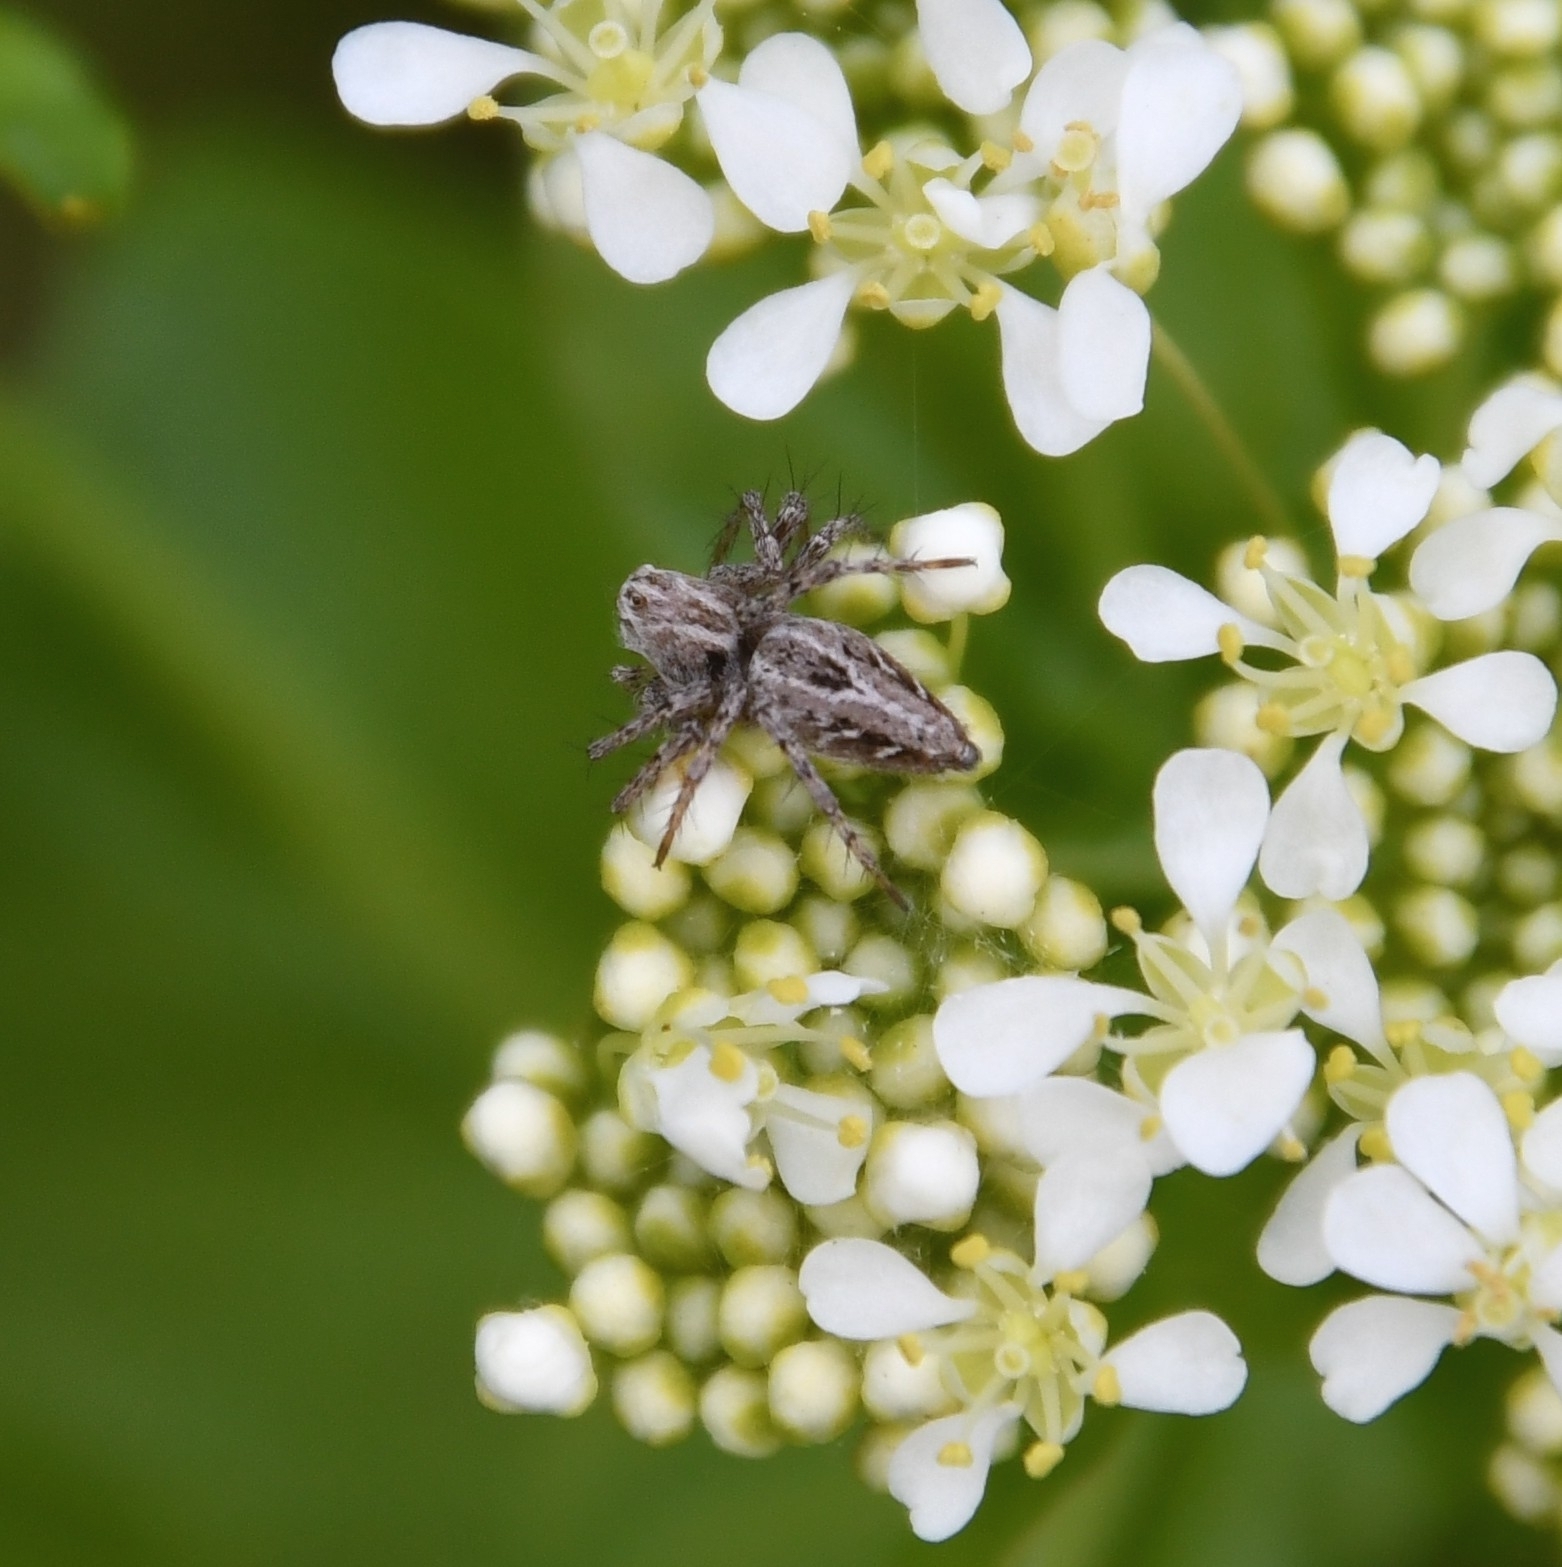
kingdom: Animalia
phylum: Arthropoda
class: Arachnida
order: Araneae
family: Oxyopidae
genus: Oxyopes
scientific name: Oxyopes heterophthalmus
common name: Lynx spider
